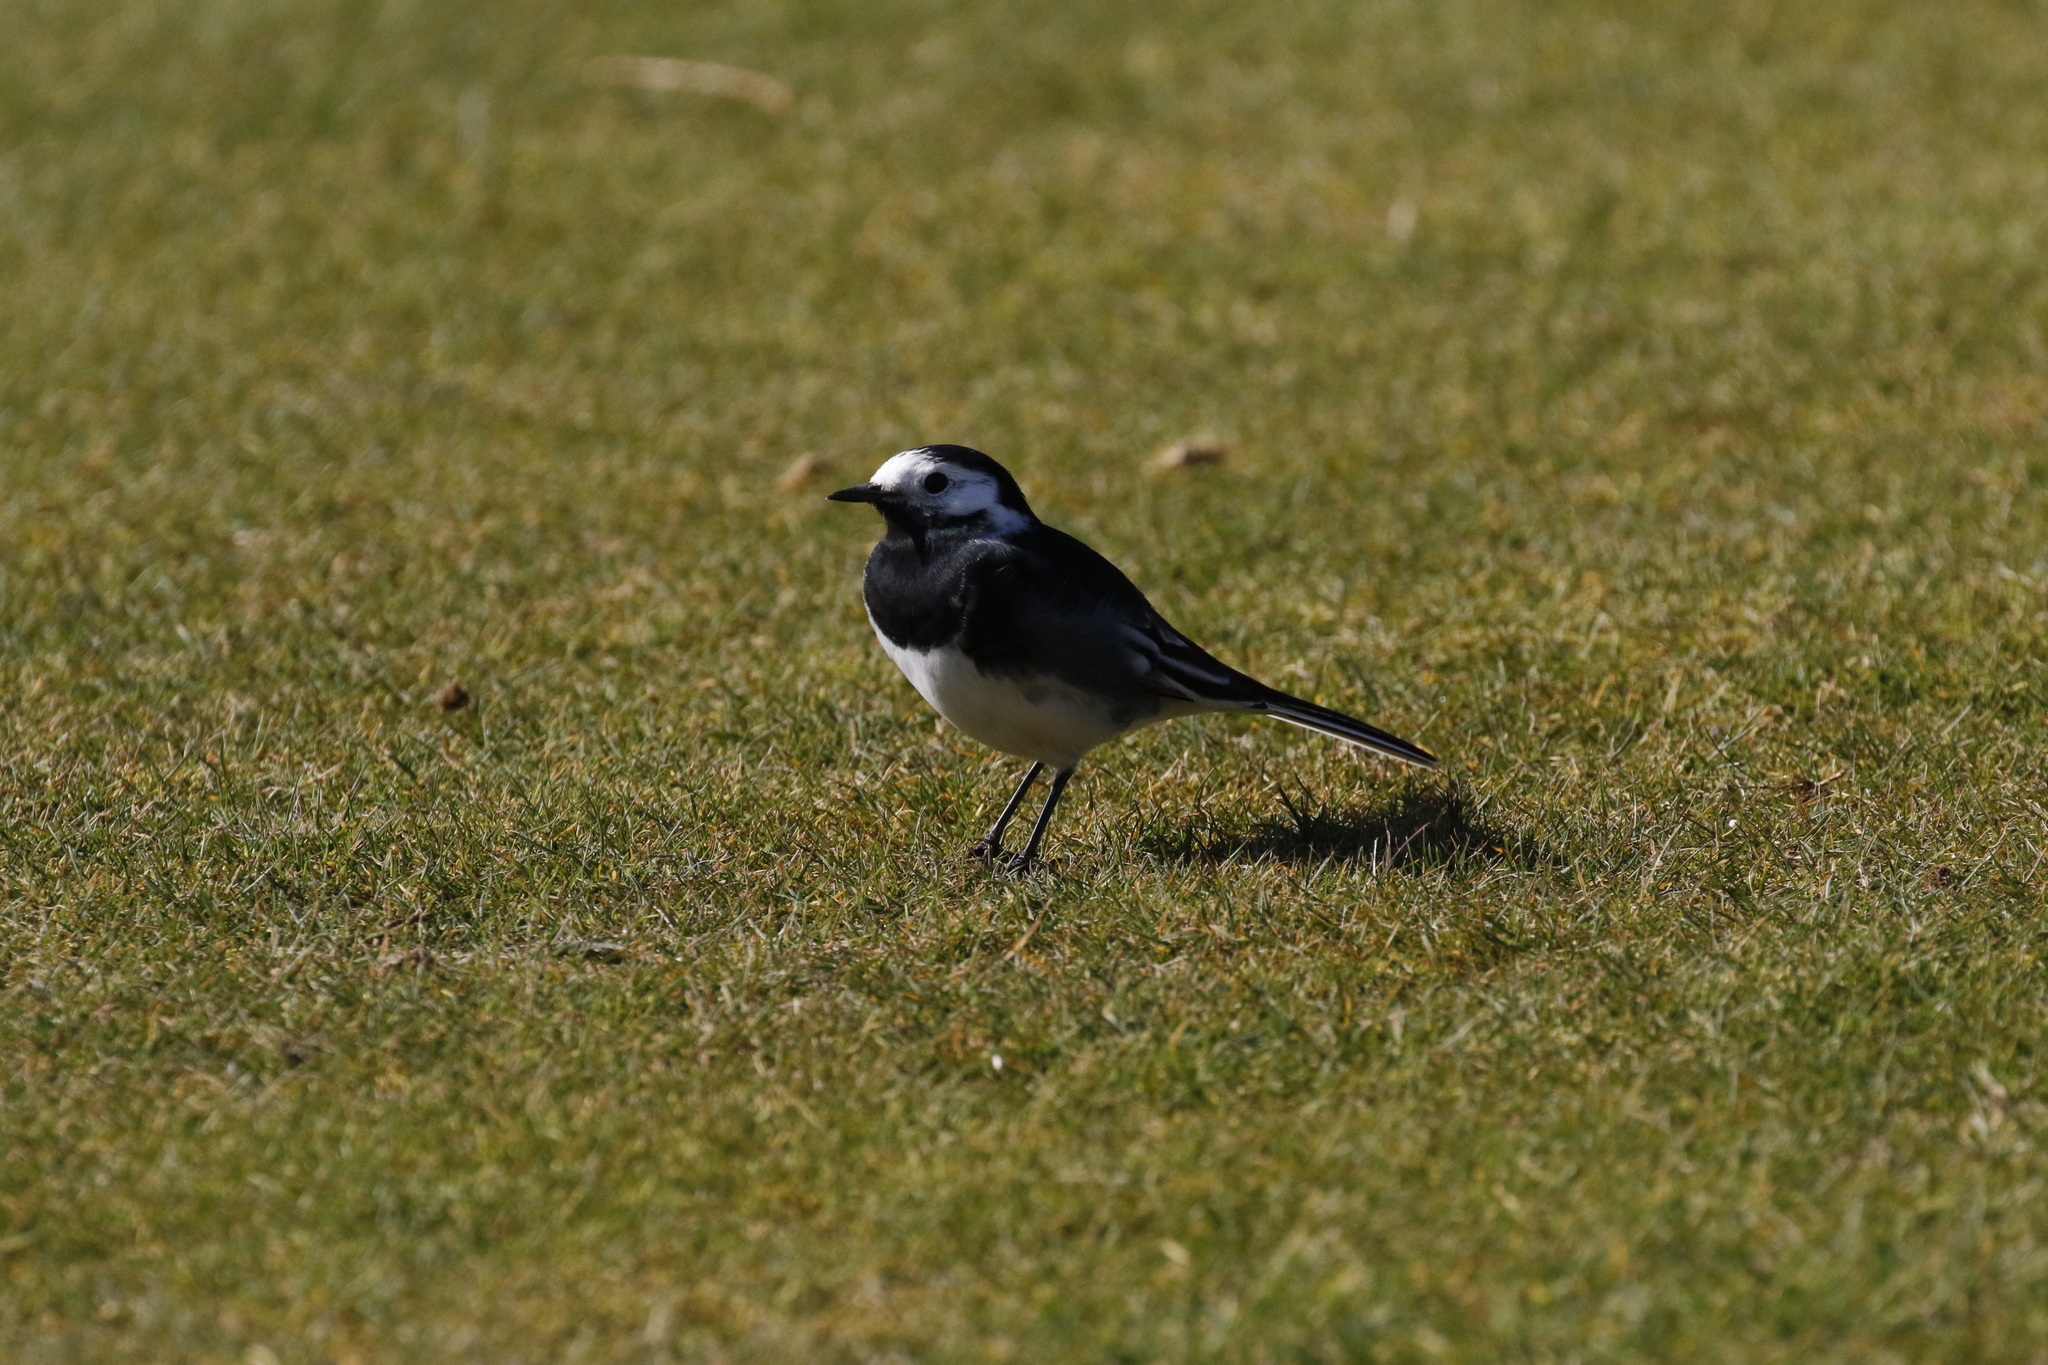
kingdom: Animalia
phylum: Chordata
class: Aves
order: Passeriformes
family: Motacillidae
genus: Motacilla
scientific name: Motacilla alba
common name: White wagtail
